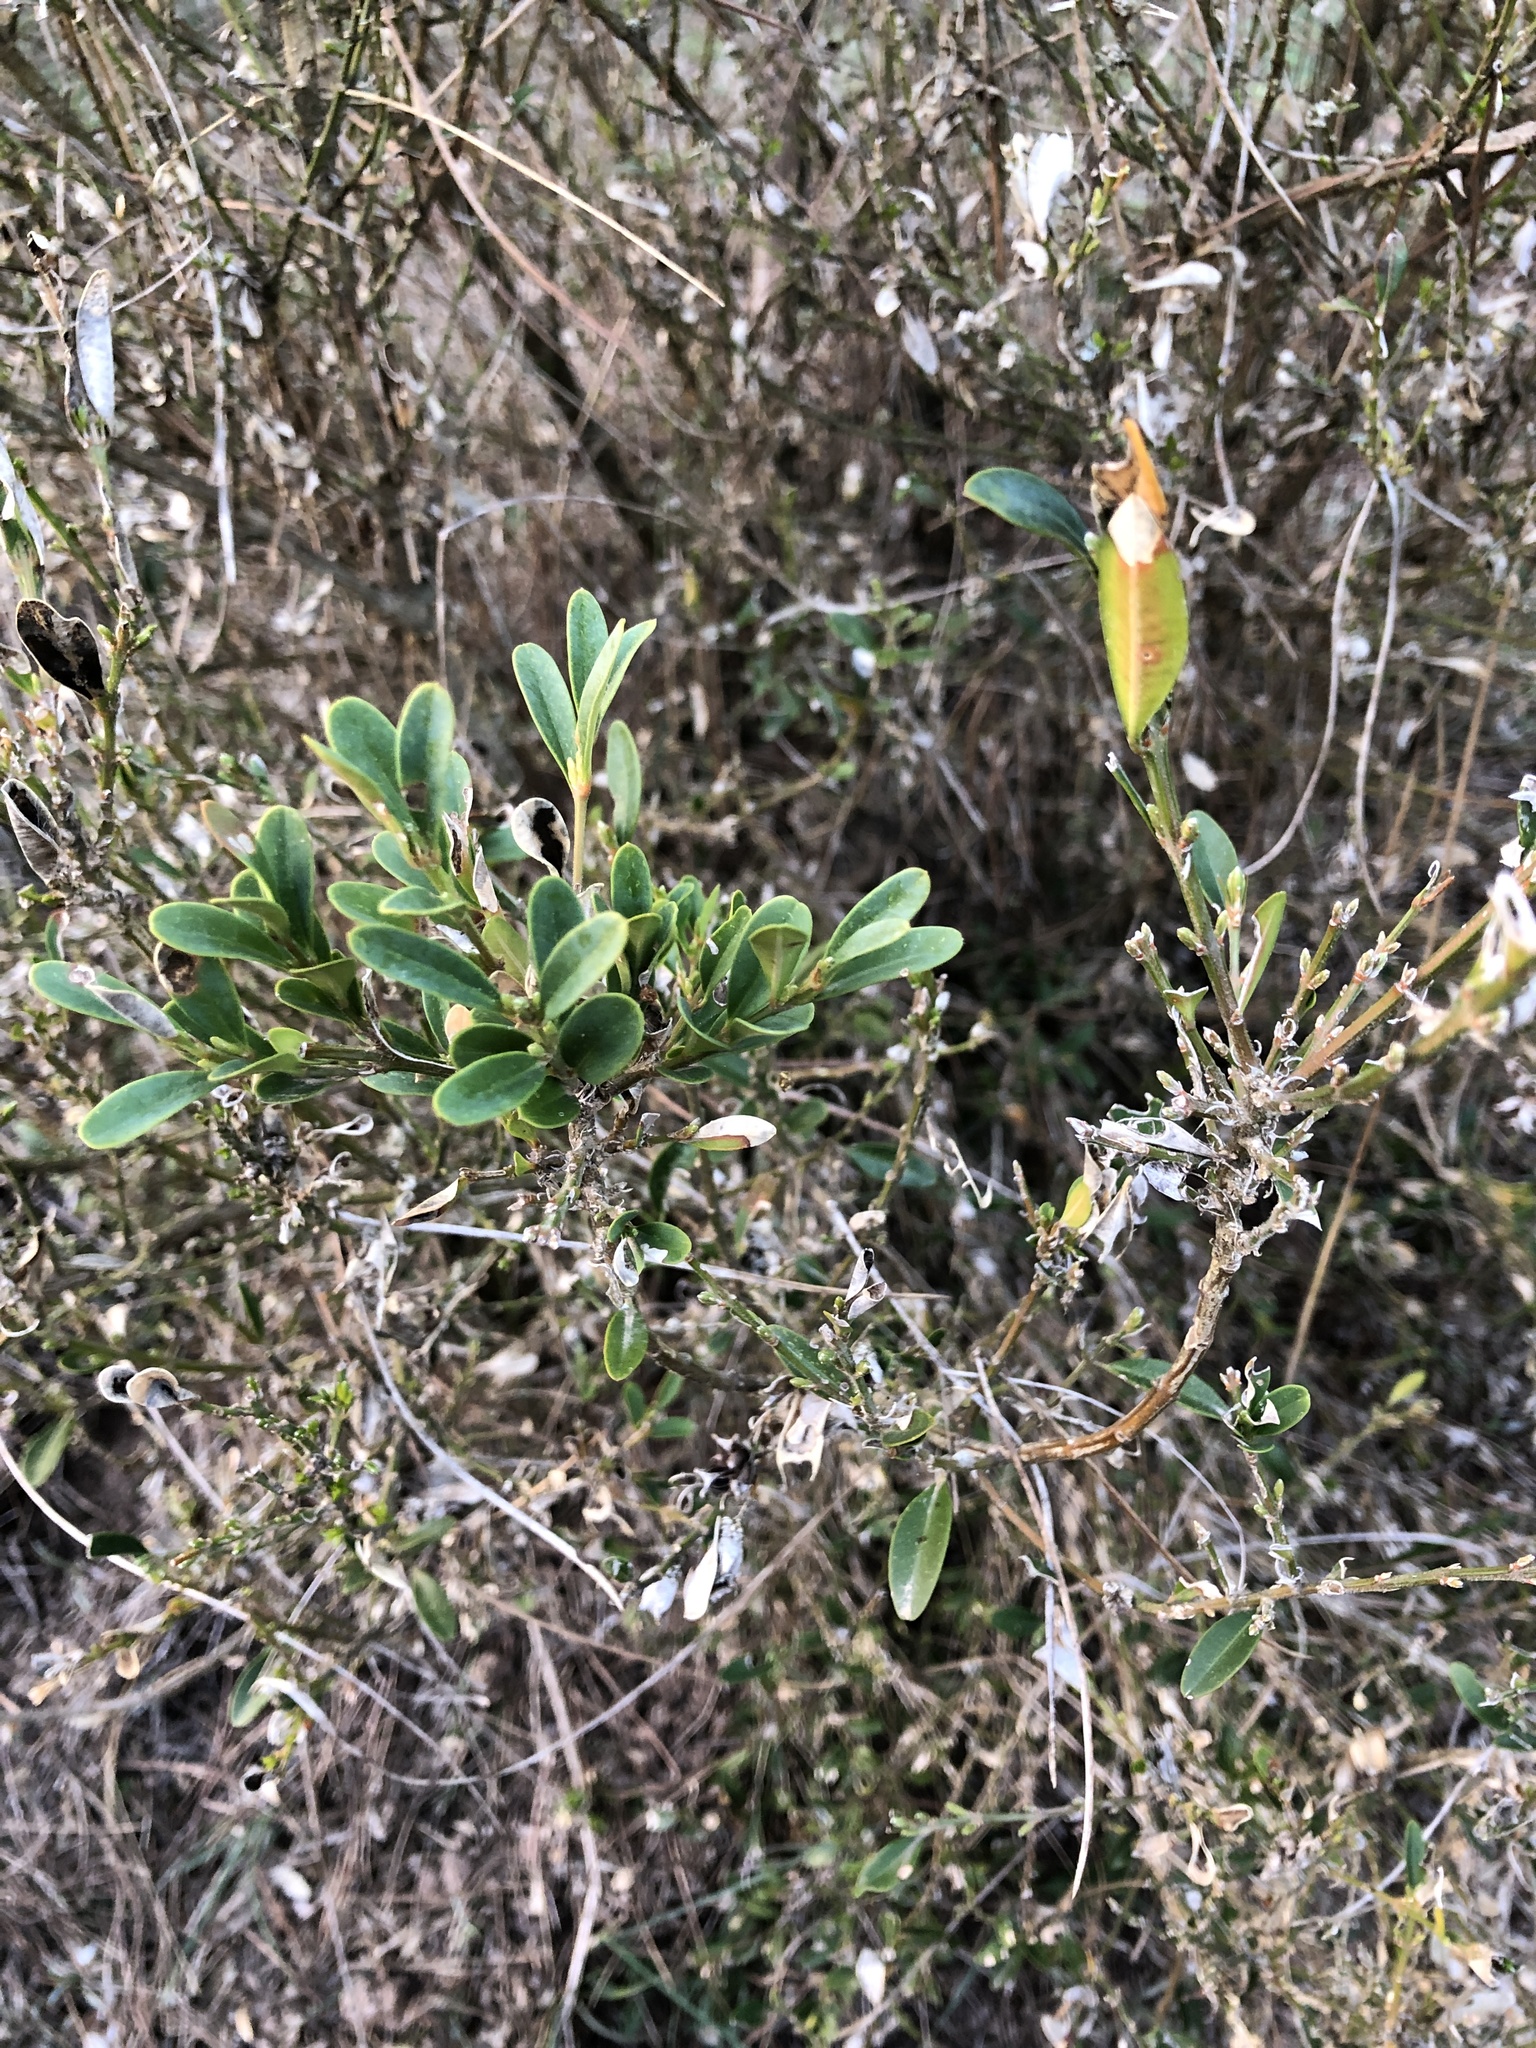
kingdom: Plantae
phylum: Tracheophyta
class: Magnoliopsida
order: Buxales
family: Buxaceae
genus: Buxus
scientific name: Buxus sempervirens
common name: Box
